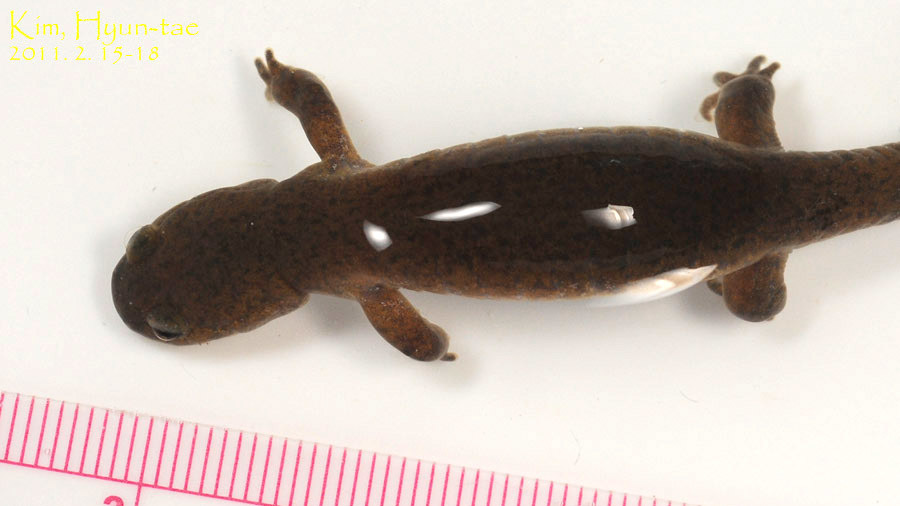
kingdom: Animalia
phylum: Chordata
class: Amphibia
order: Caudata
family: Hynobiidae
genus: Hynobius
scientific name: Hynobius quelpaertensis
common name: Cheju salamander
